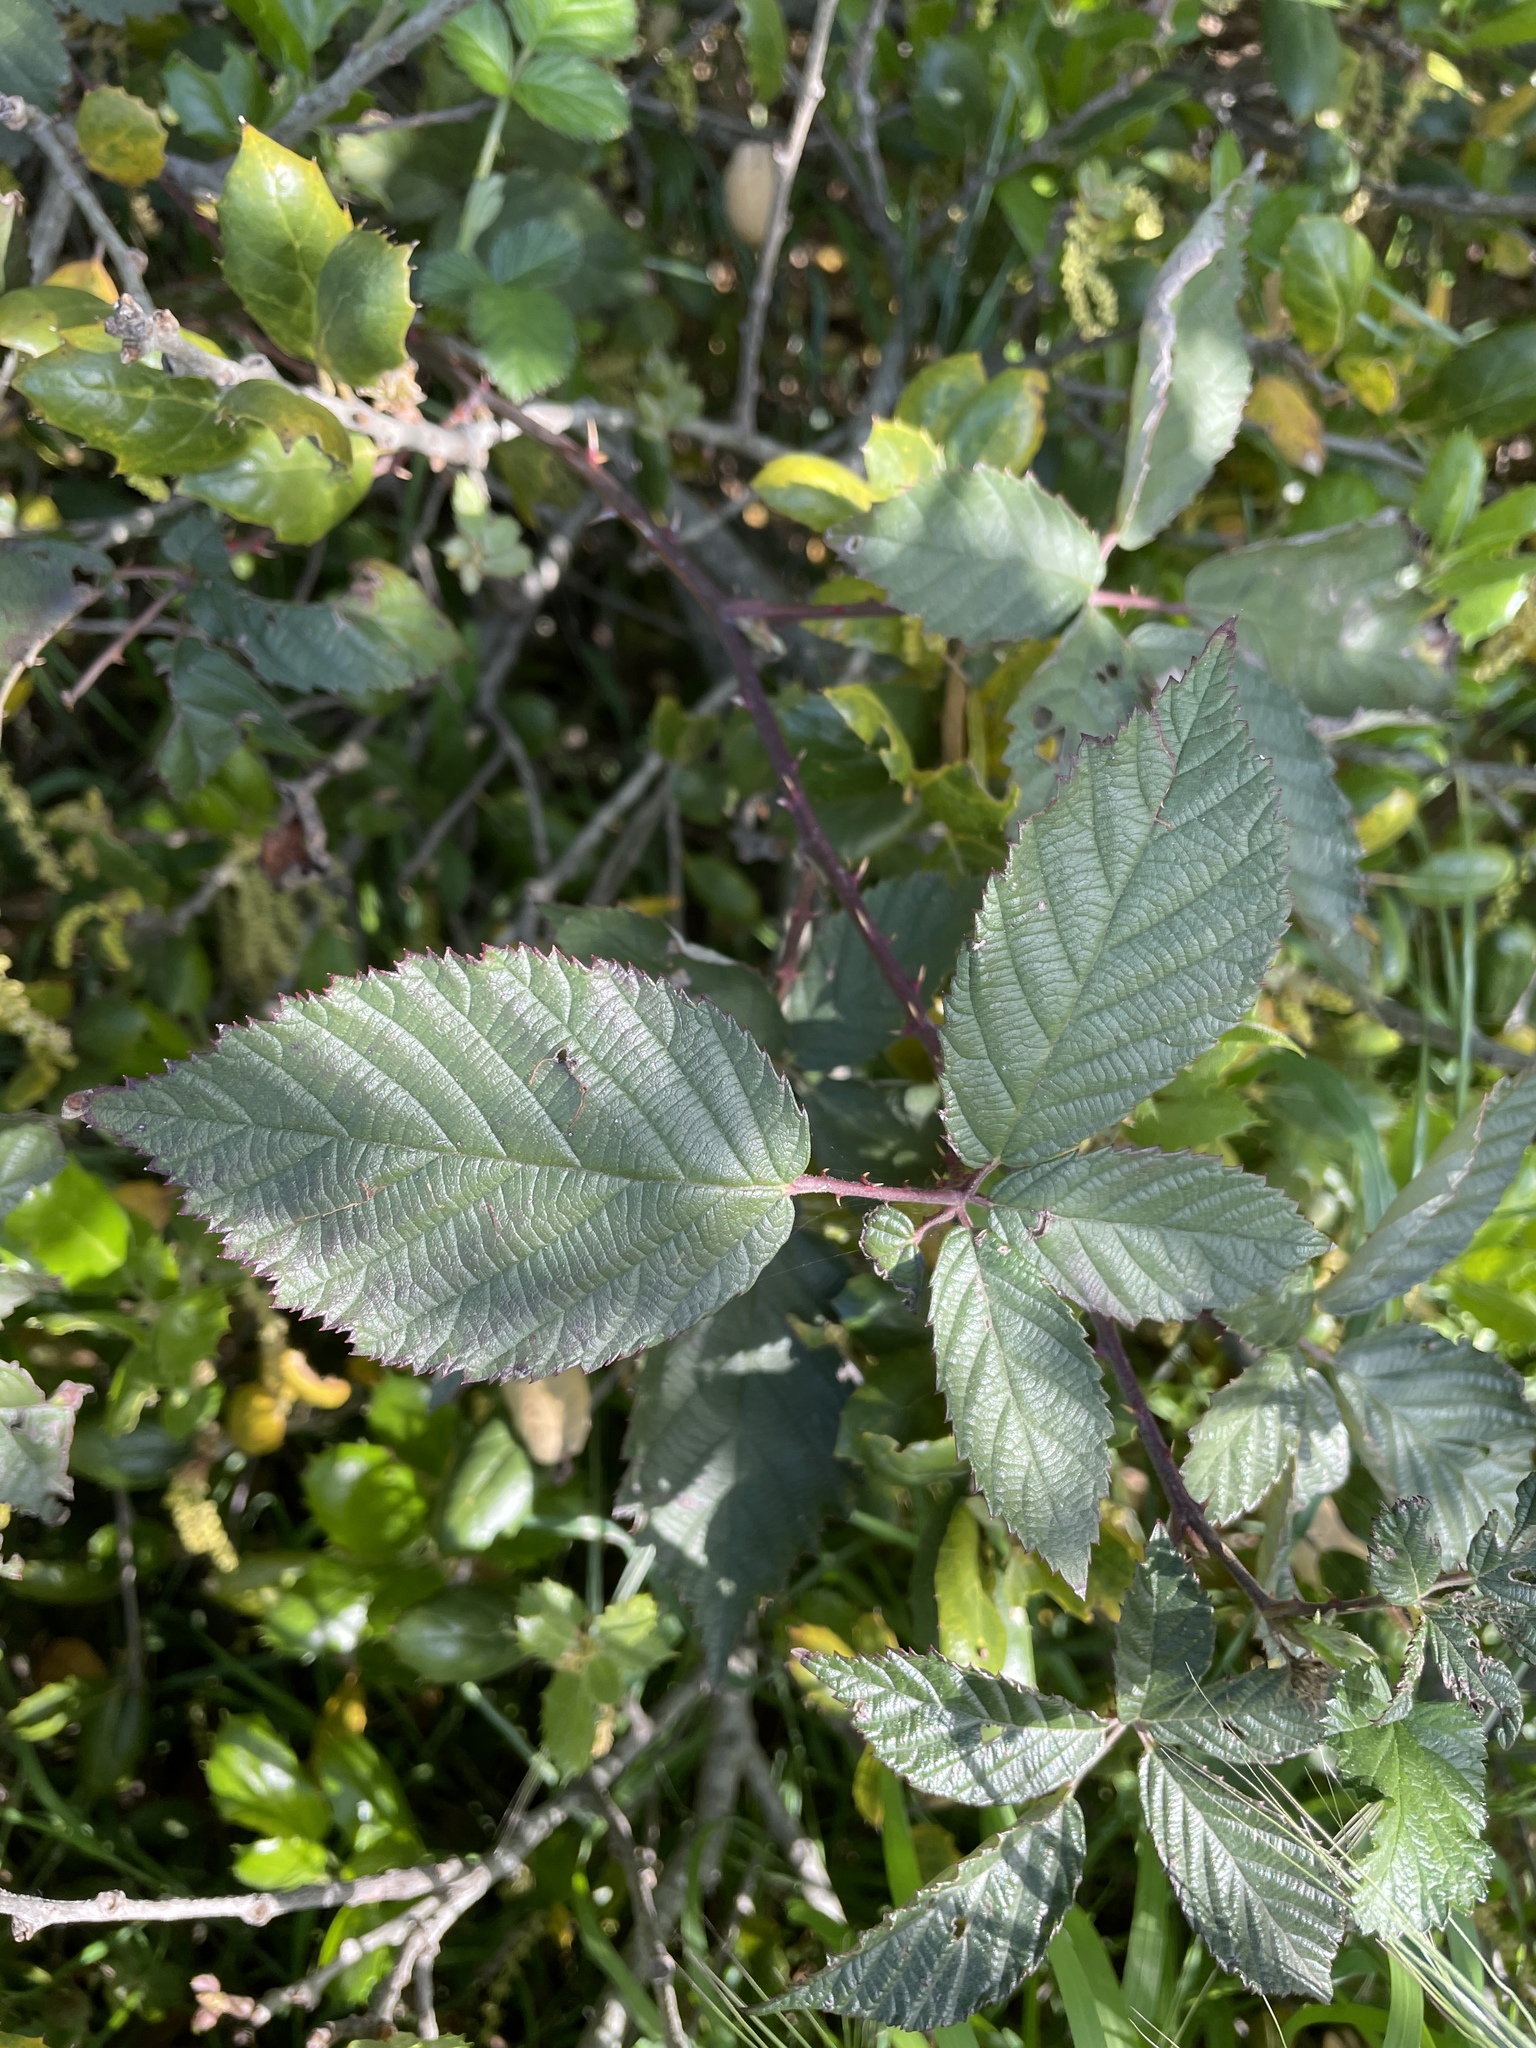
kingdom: Plantae
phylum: Tracheophyta
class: Magnoliopsida
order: Rosales
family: Rosaceae
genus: Rubus
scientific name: Rubus armeniacus
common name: Himalayan blackberry
